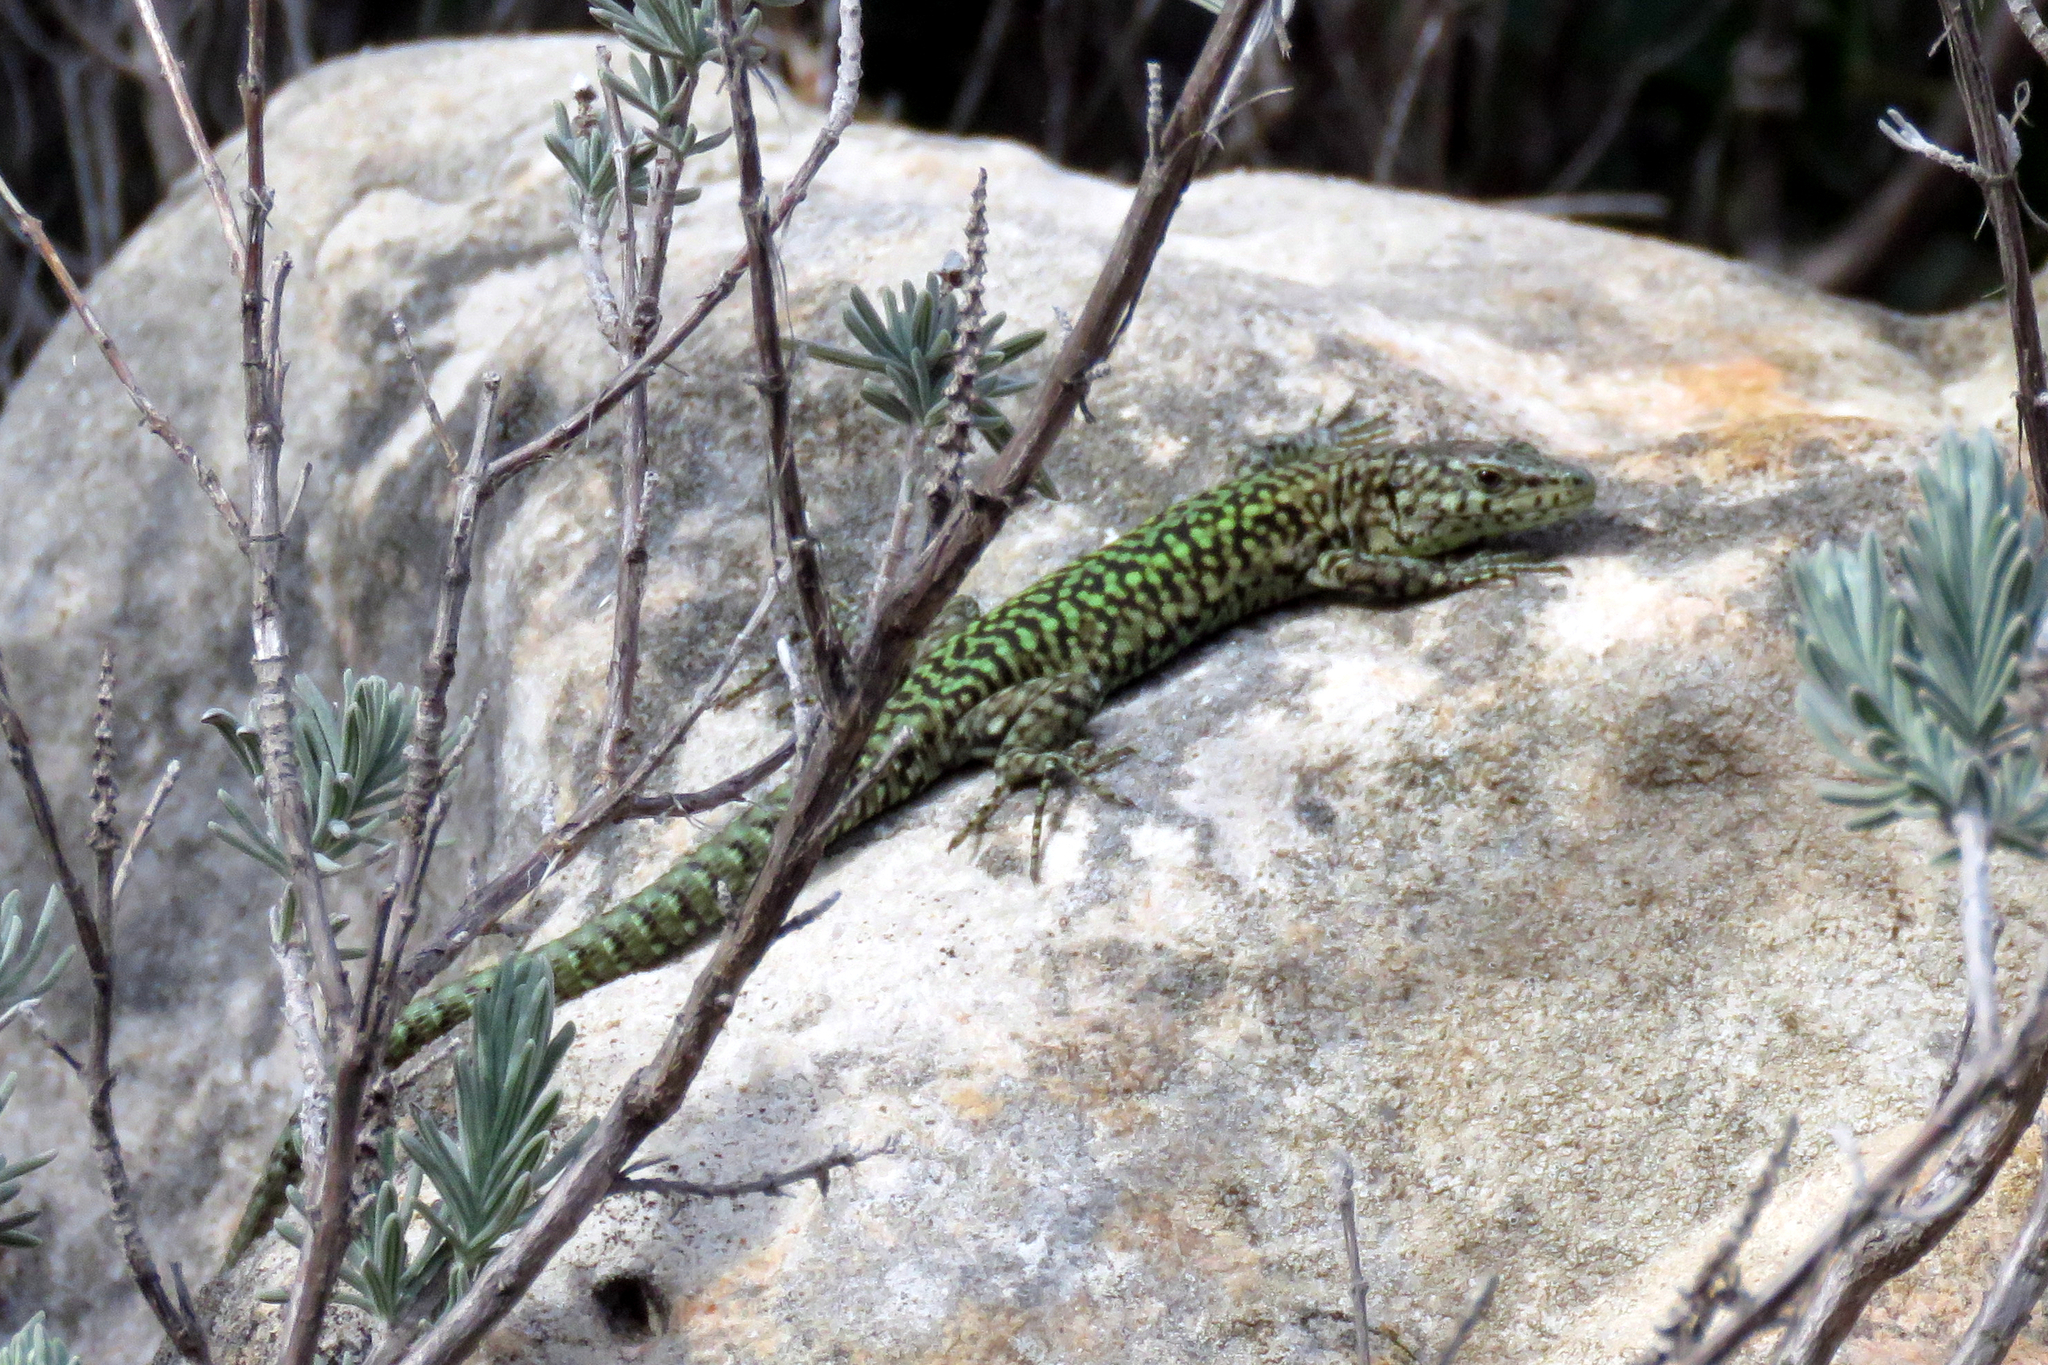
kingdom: Animalia
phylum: Chordata
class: Squamata
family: Lacertidae
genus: Podarcis
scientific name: Podarcis vaucheri
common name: Vaucher's wall lizard
